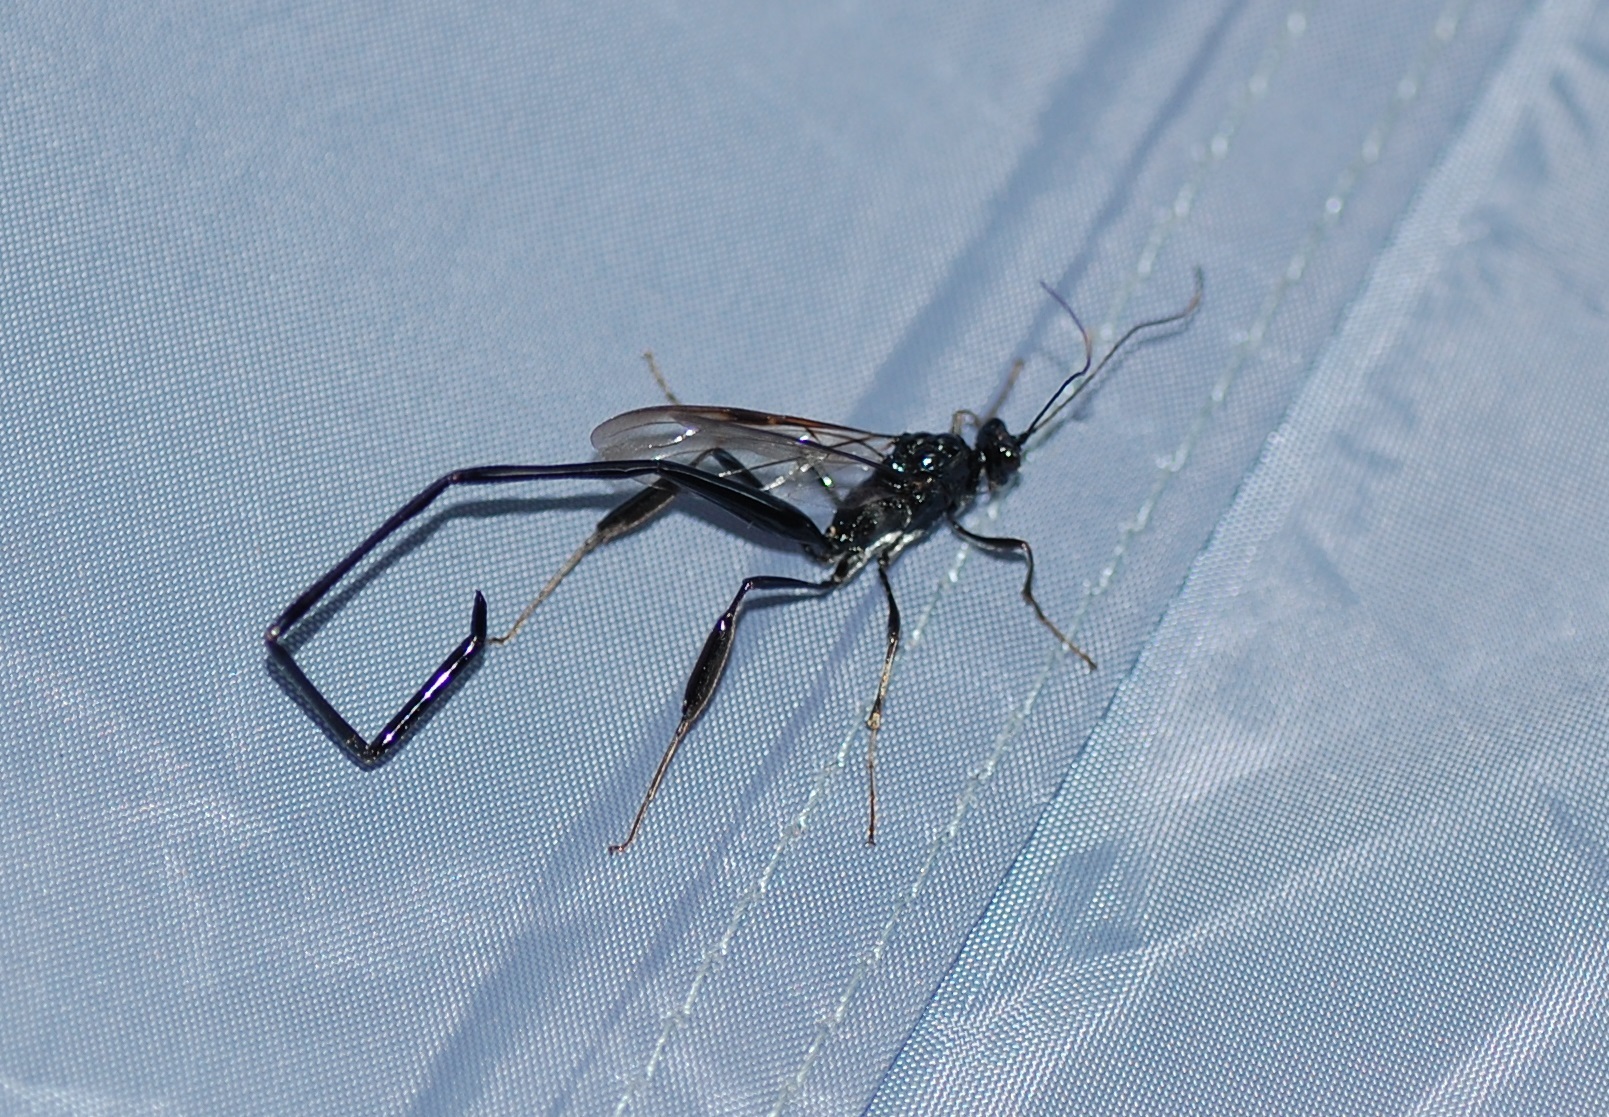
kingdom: Animalia
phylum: Arthropoda
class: Insecta
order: Hymenoptera
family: Pelecinidae
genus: Pelecinus
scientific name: Pelecinus polyturator
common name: American pelecinid wasp
